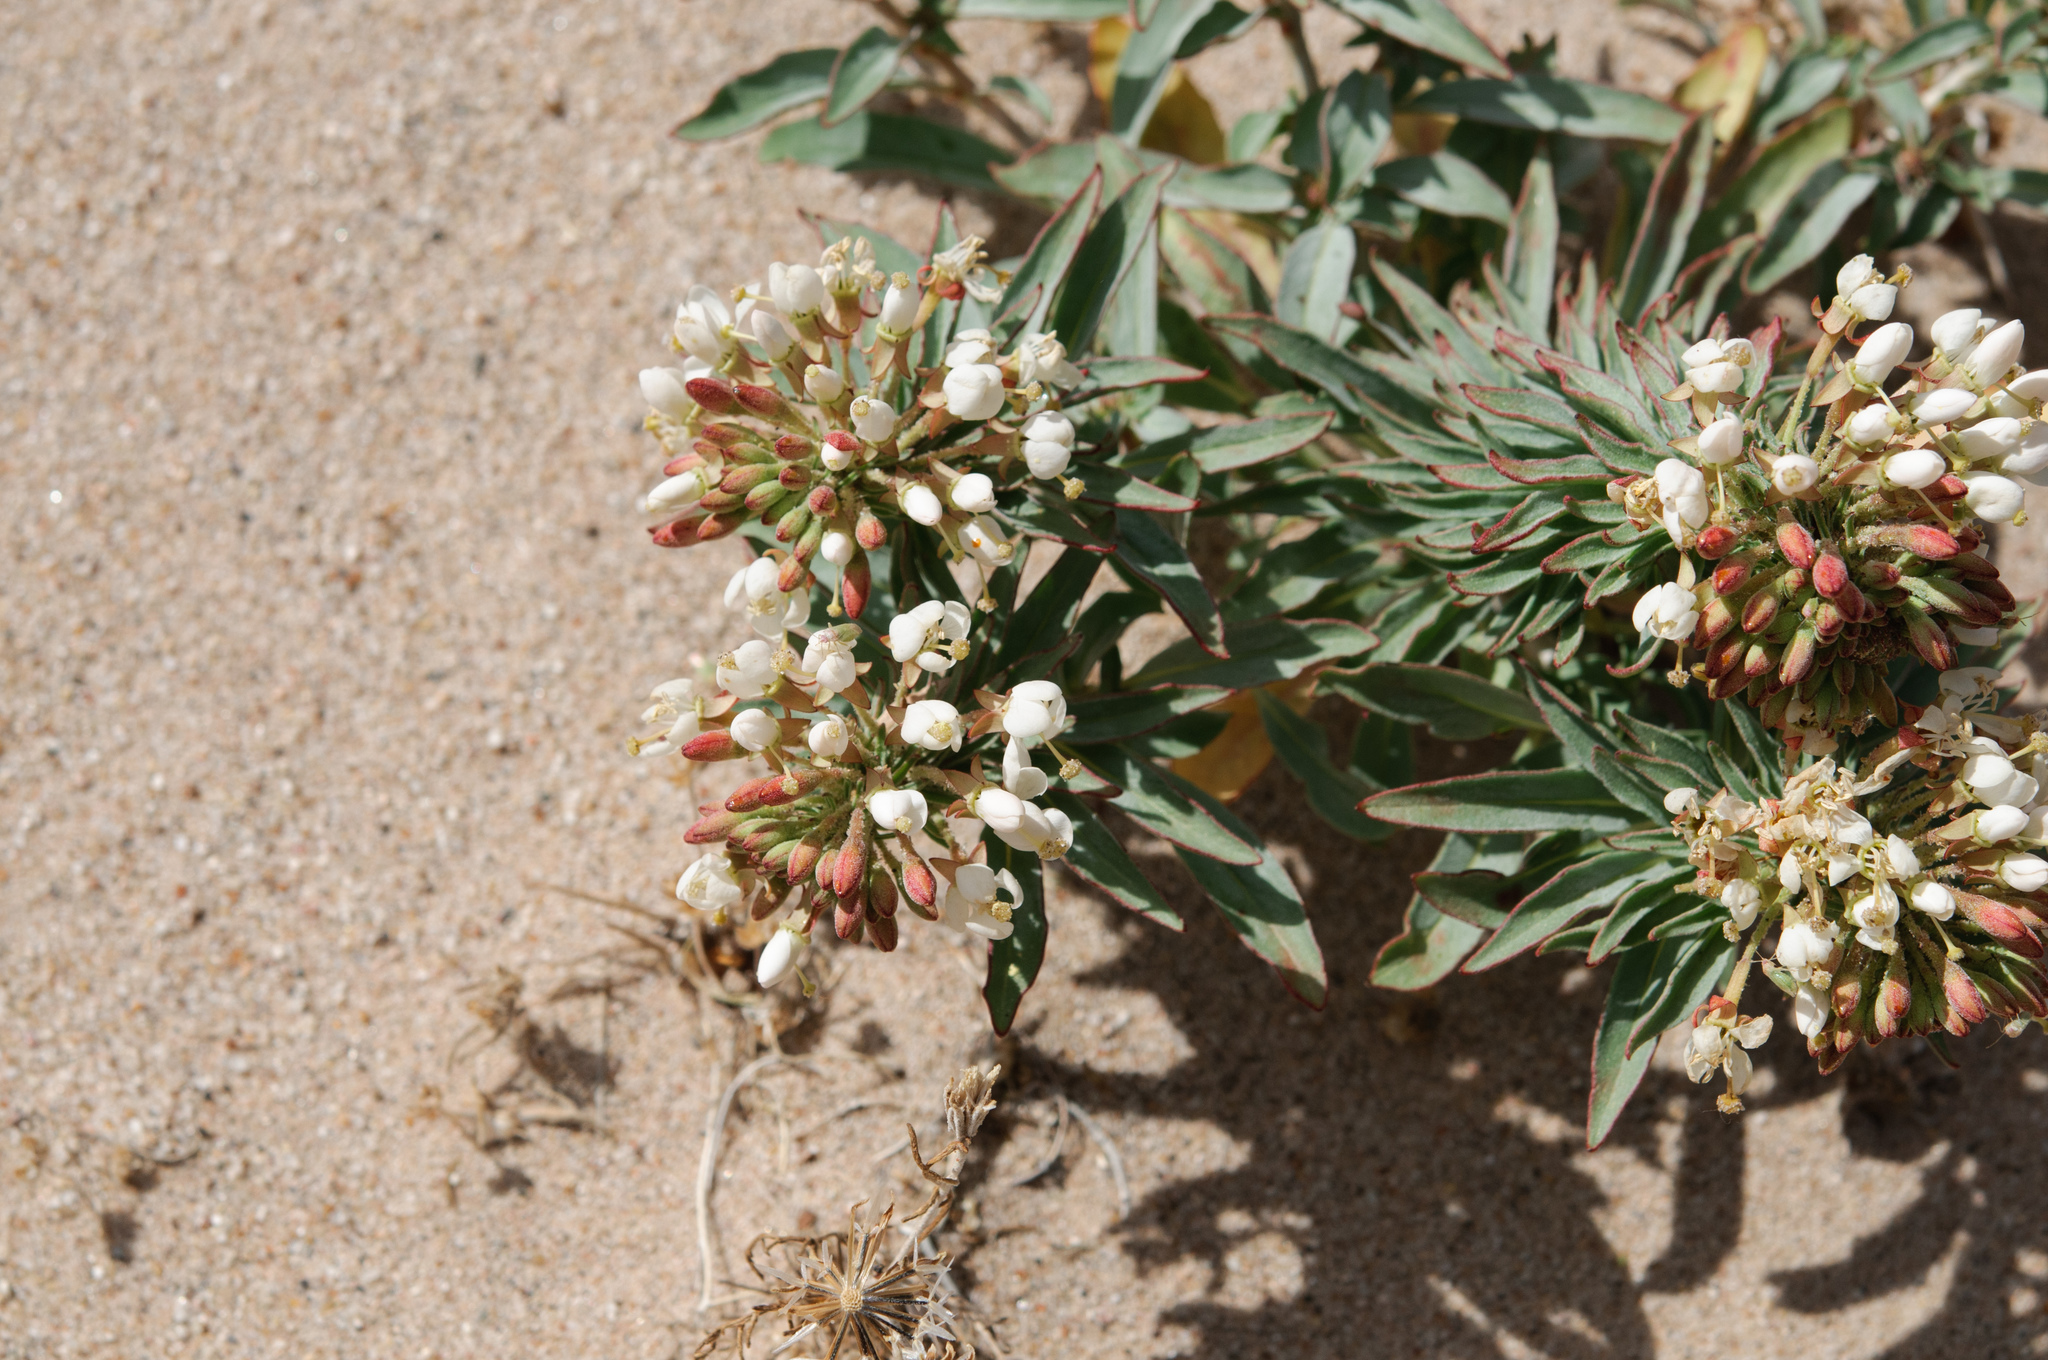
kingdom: Plantae
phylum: Tracheophyta
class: Magnoliopsida
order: Myrtales
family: Onagraceae
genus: Eremothera
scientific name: Eremothera boothii
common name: Booth's evening primrose
